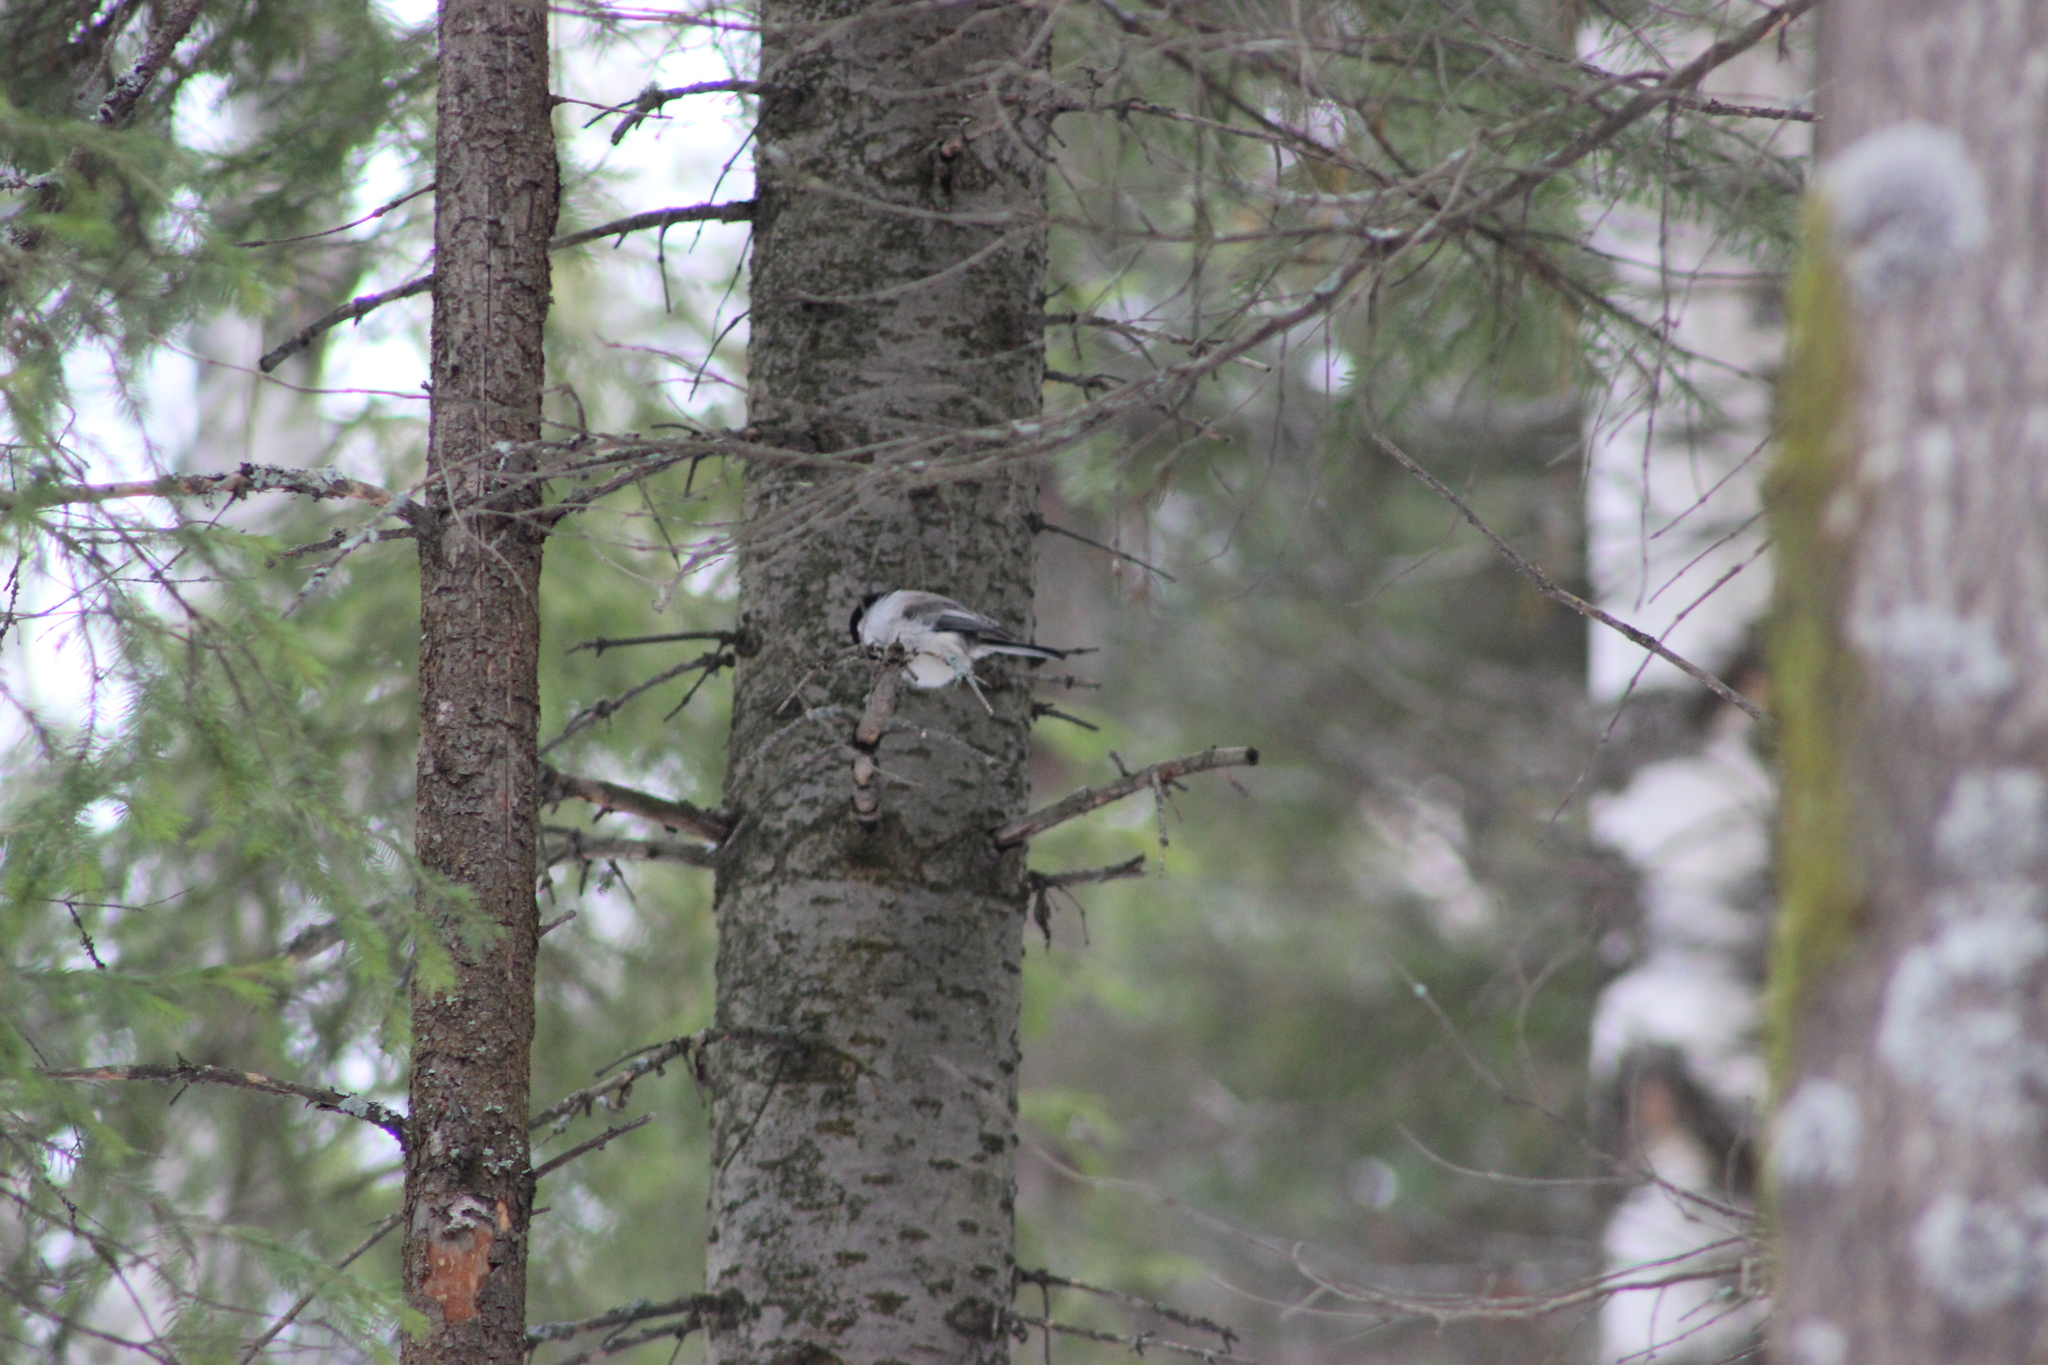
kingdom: Animalia
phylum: Chordata
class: Aves
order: Passeriformes
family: Paridae
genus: Poecile
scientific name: Poecile montanus
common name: Willow tit
